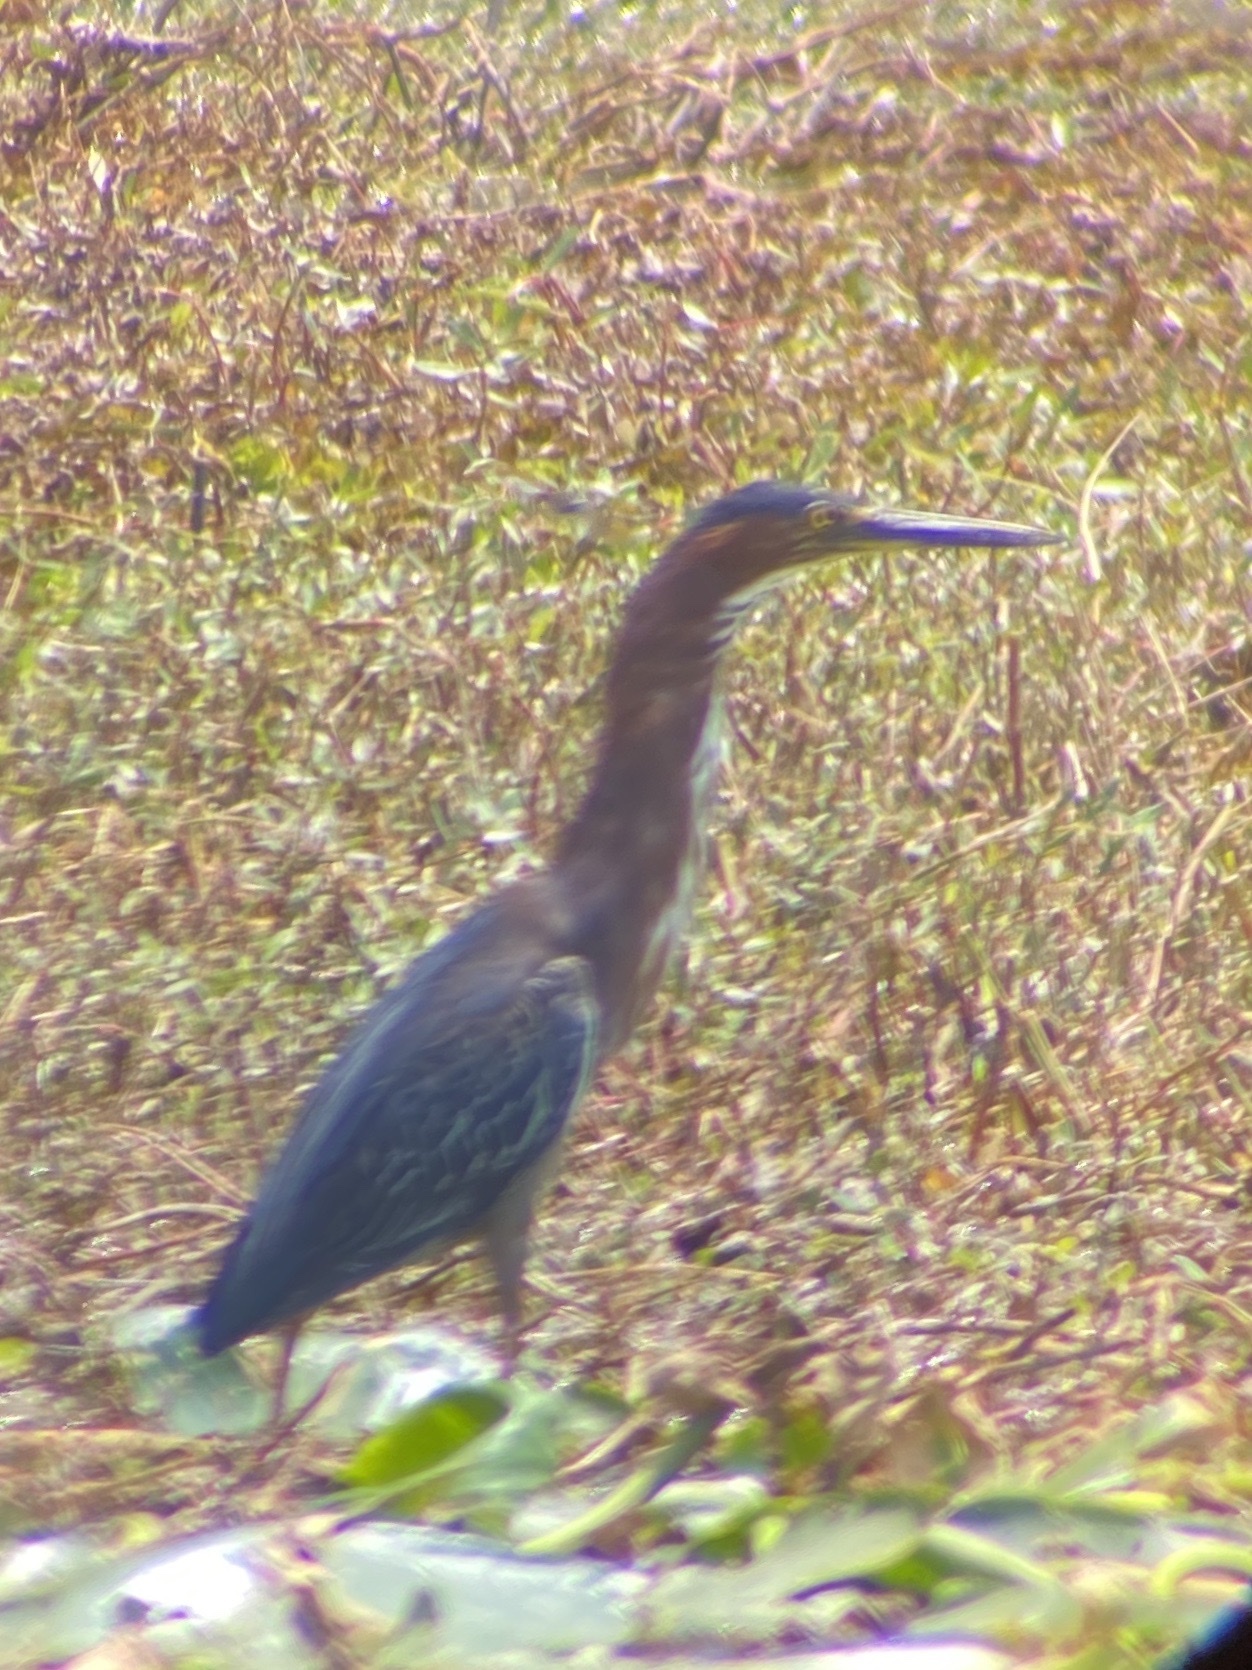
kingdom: Animalia
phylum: Chordata
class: Aves
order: Pelecaniformes
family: Ardeidae
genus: Butorides
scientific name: Butorides virescens
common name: Green heron
